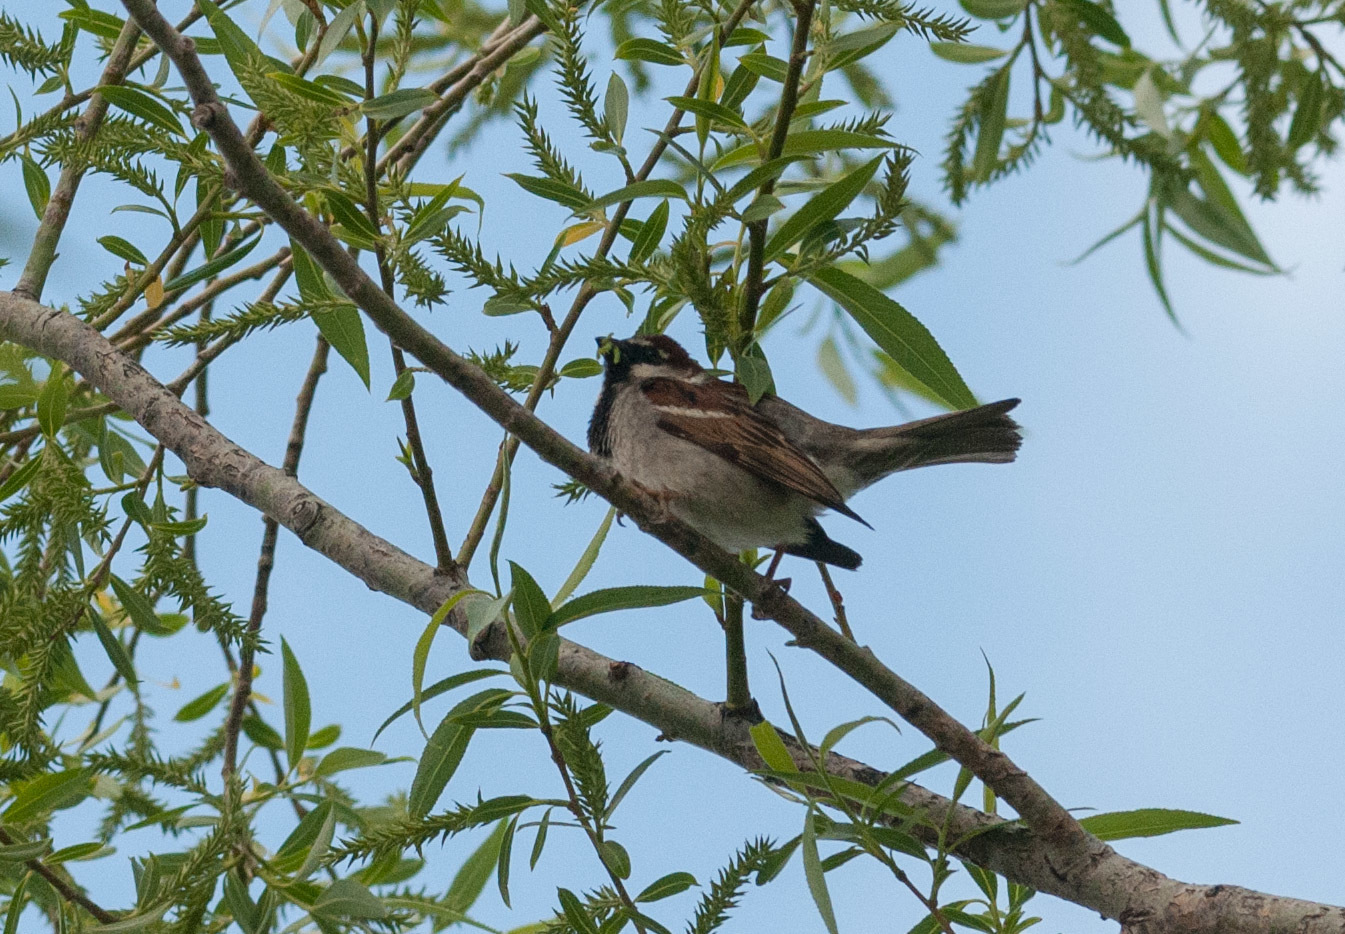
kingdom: Animalia
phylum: Chordata
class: Aves
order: Passeriformes
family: Passeridae
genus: Passer
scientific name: Passer domesticus
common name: House sparrow
